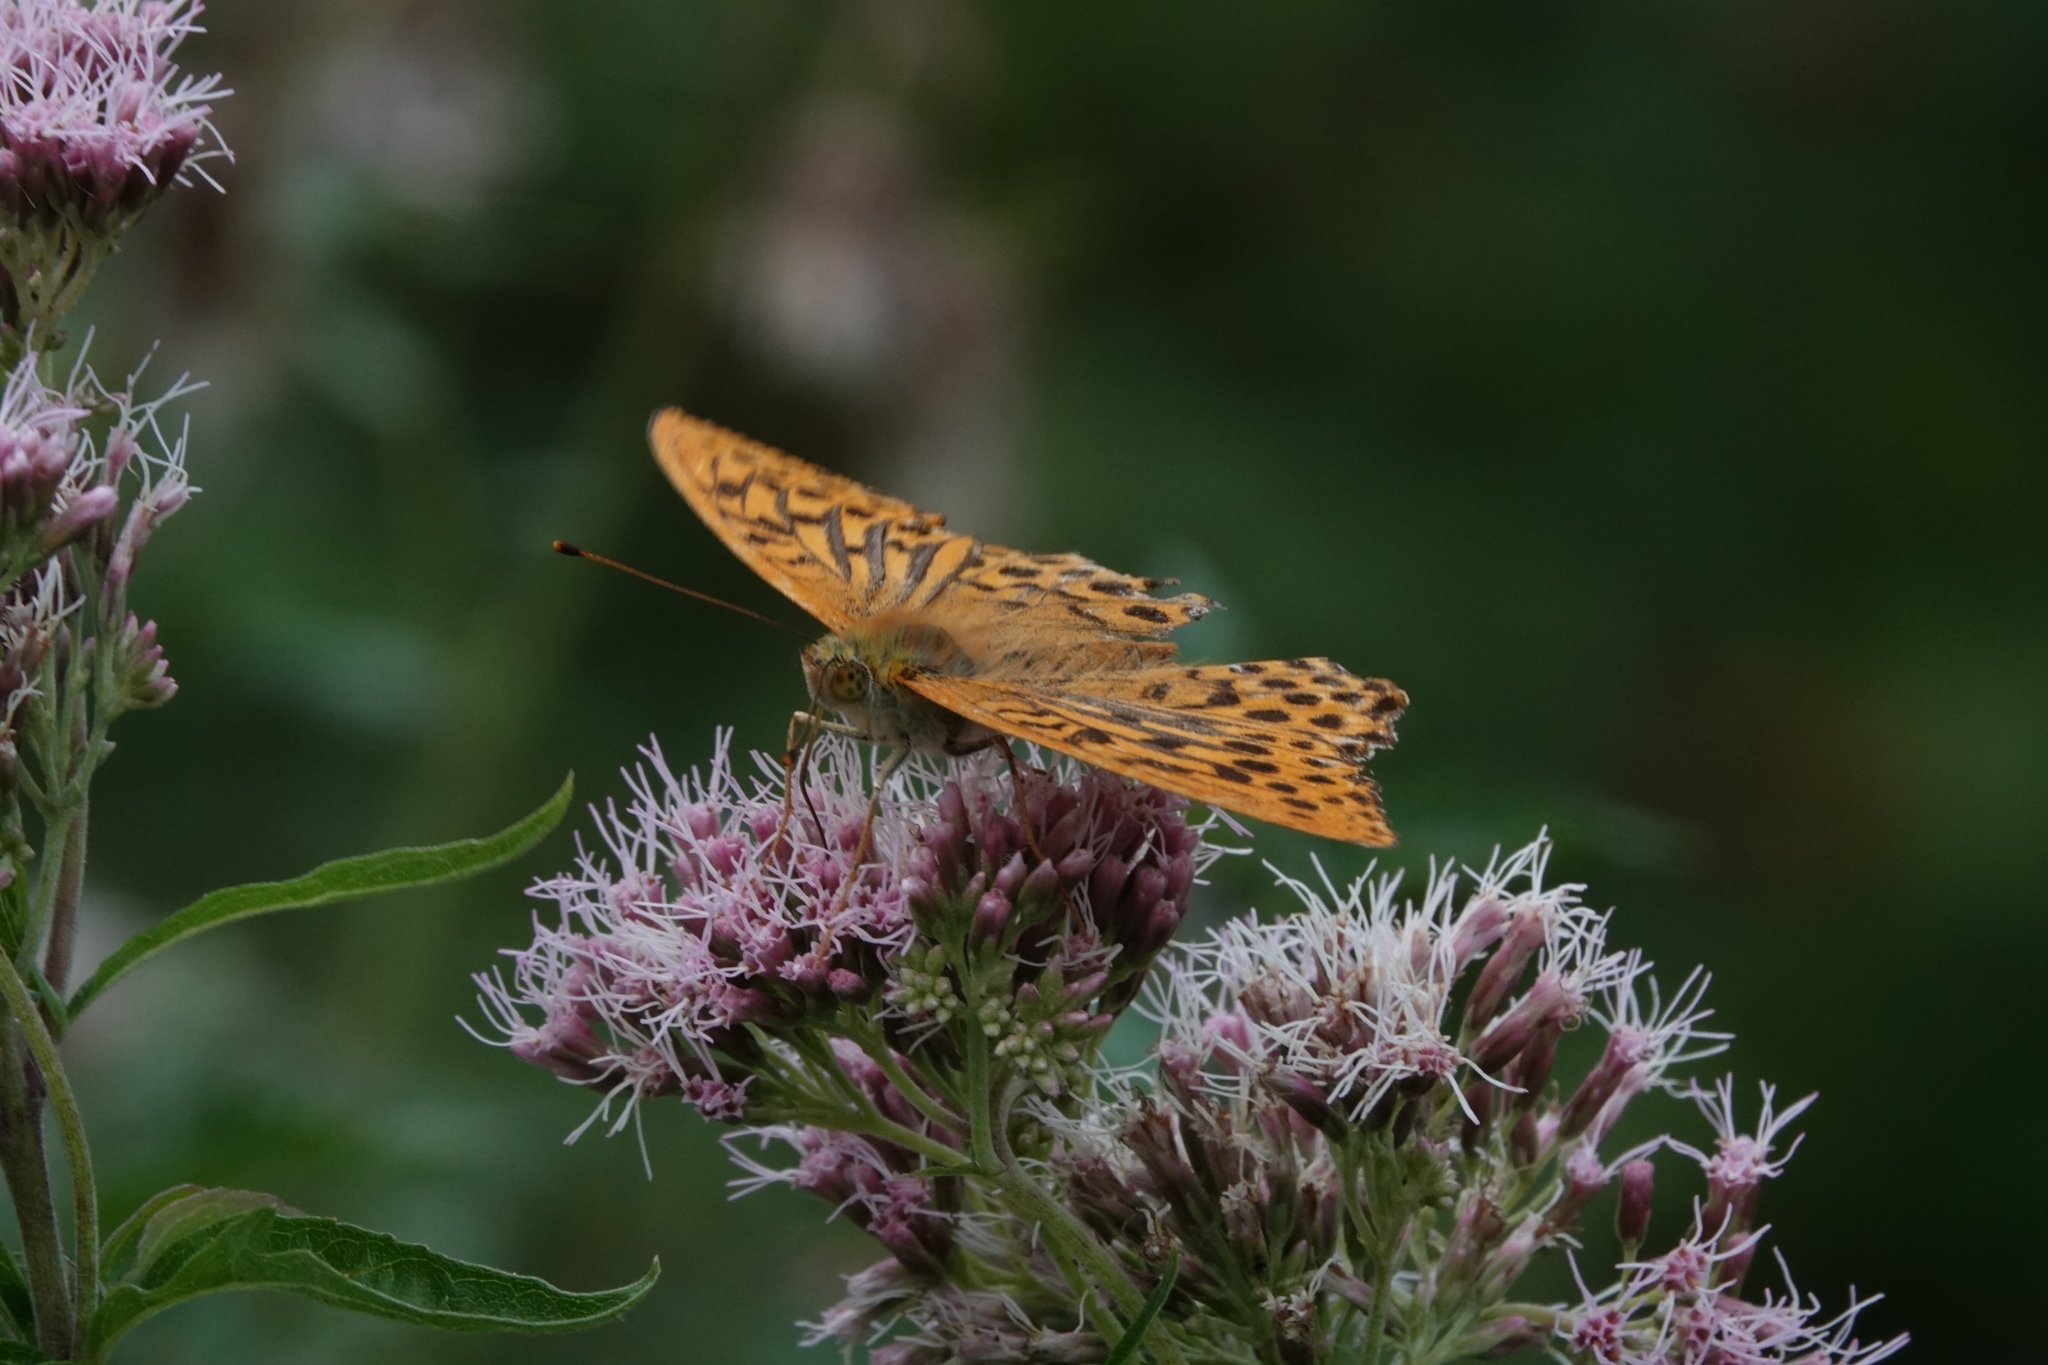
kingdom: Animalia
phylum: Arthropoda
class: Insecta
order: Lepidoptera
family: Nymphalidae
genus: Argynnis
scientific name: Argynnis paphia
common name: Silver-washed fritillary
